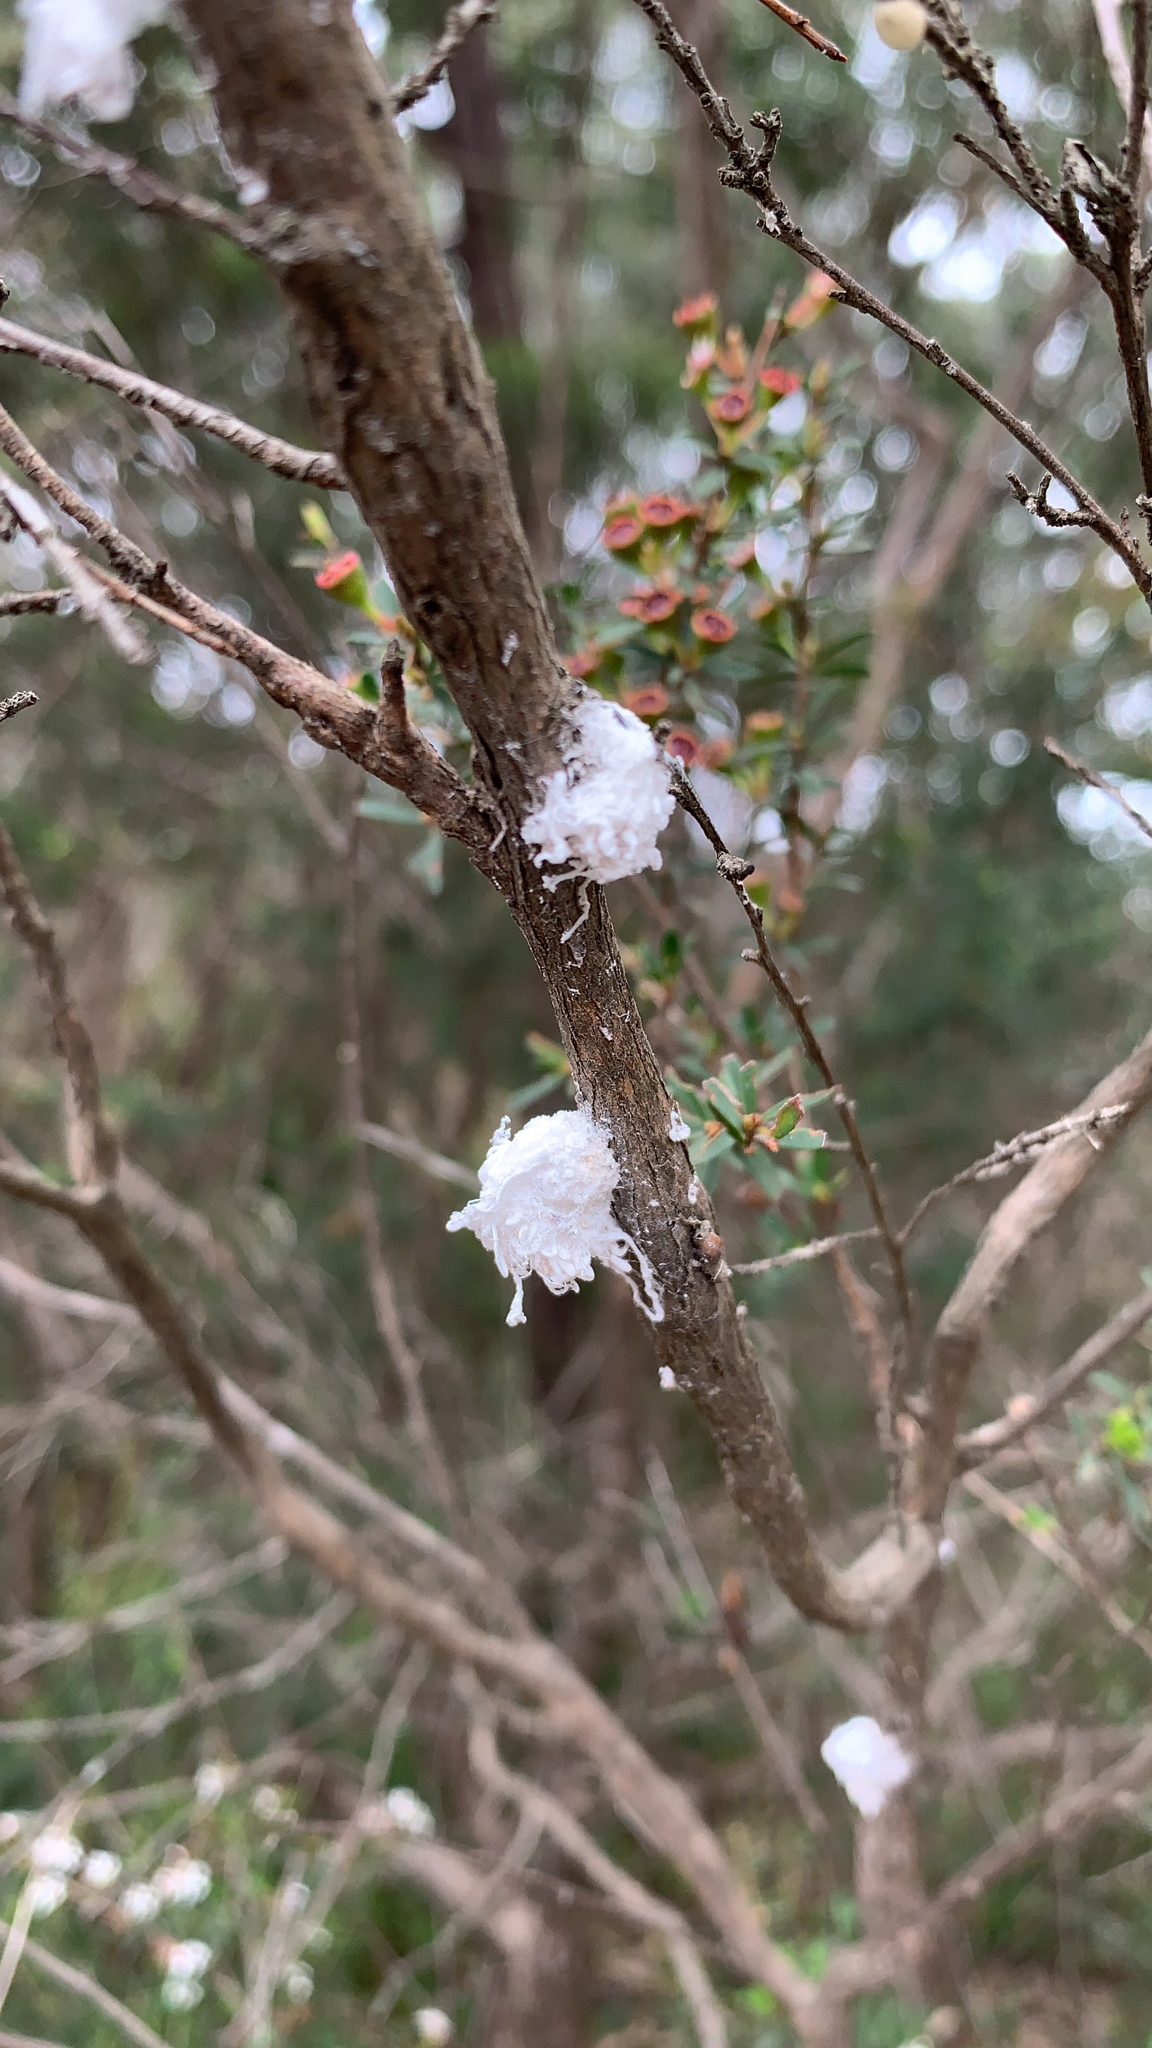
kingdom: Animalia
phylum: Arthropoda
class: Insecta
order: Hemiptera
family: Asterolecaniidae
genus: Callococcus
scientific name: Callococcus
